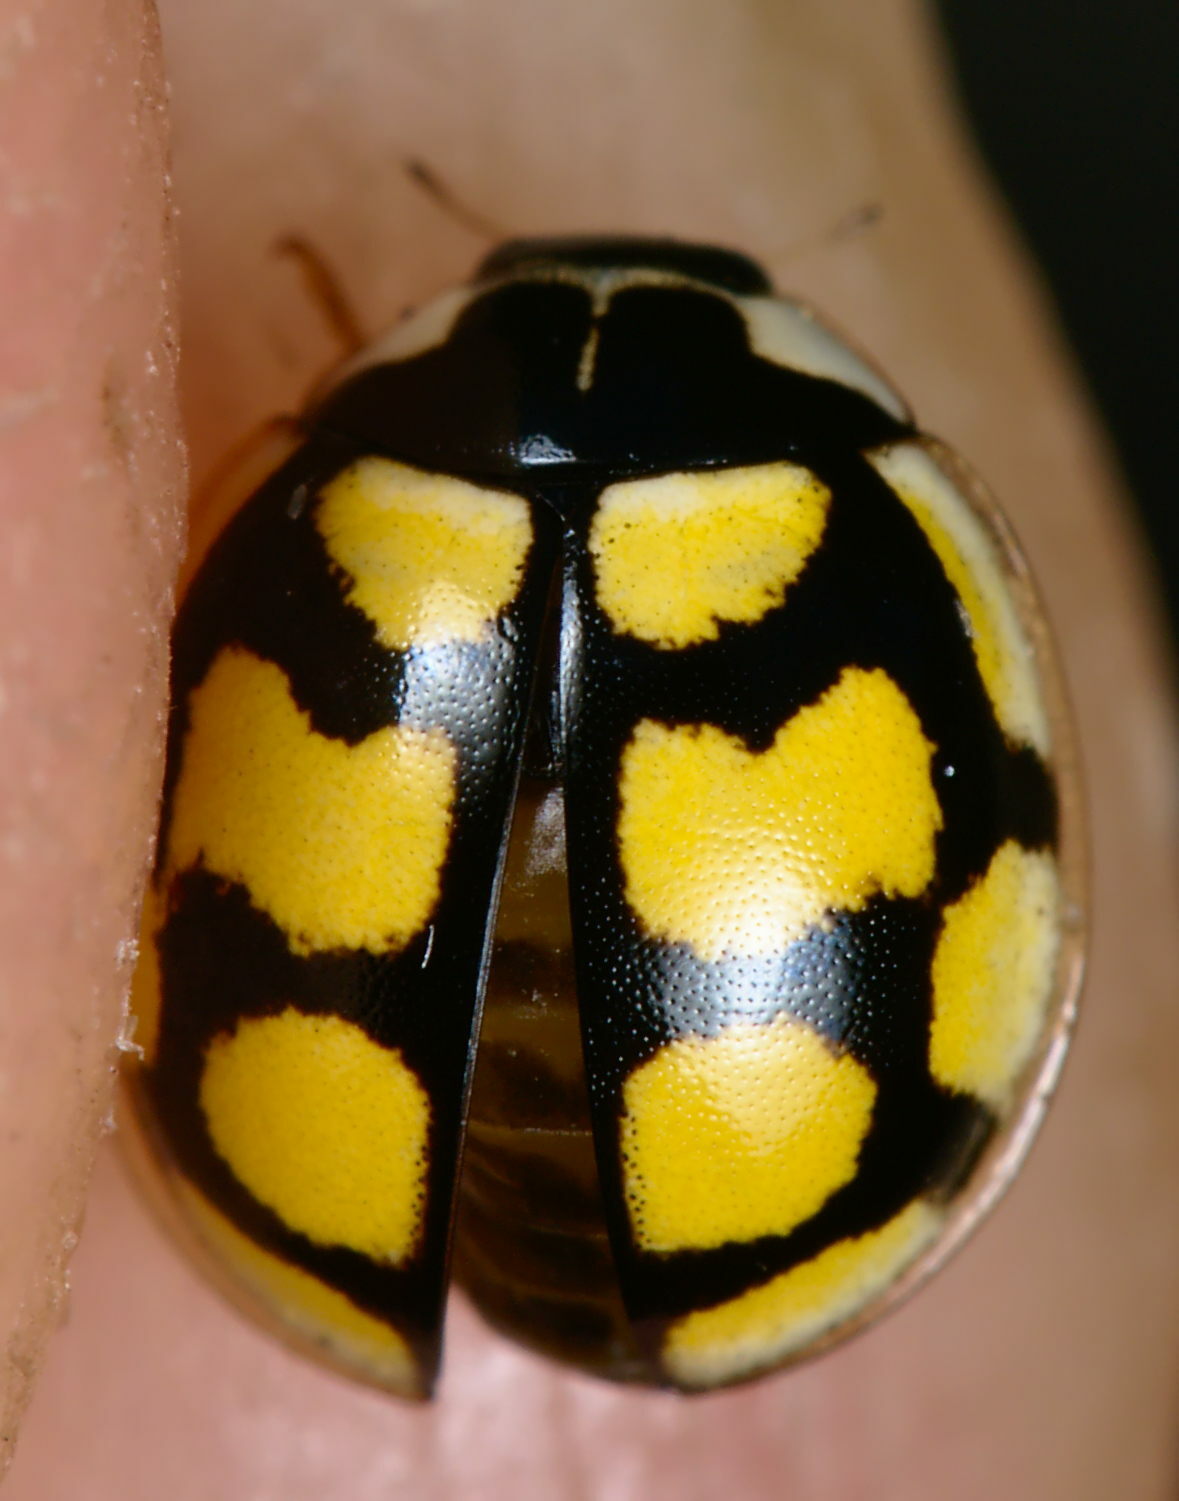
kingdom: Animalia
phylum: Arthropoda
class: Insecta
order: Coleoptera
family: Coccinellidae
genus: Oenopia
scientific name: Oenopia lyncea
